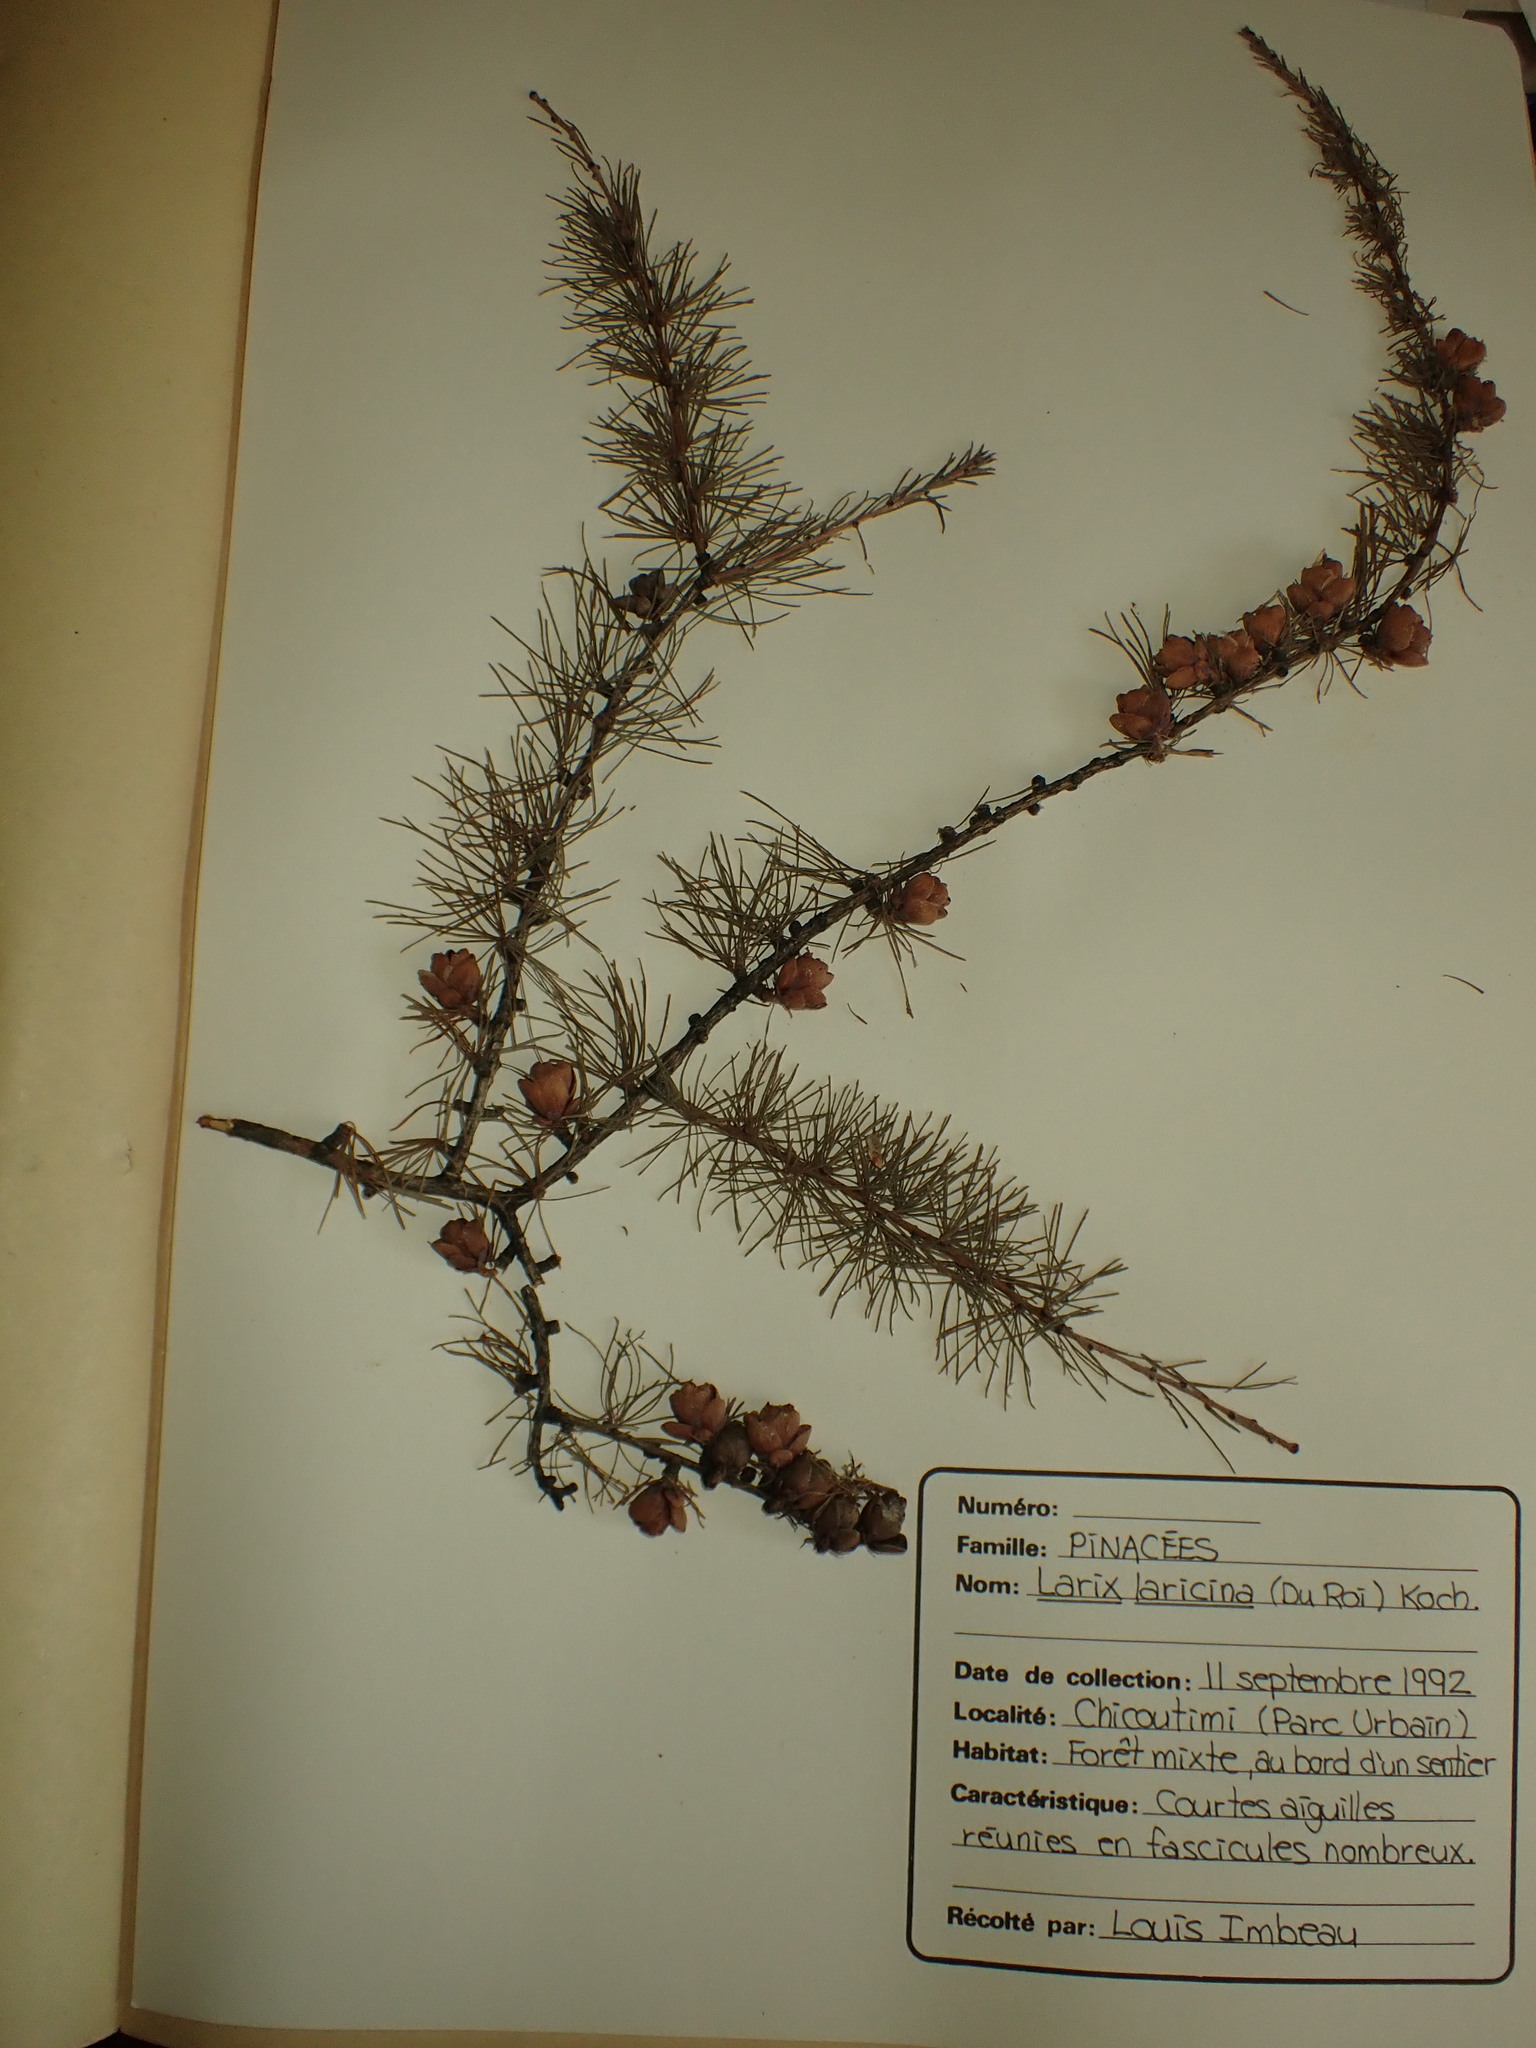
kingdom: Plantae
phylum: Tracheophyta
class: Pinopsida
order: Pinales
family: Pinaceae
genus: Larix
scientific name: Larix laricina
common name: American larch
